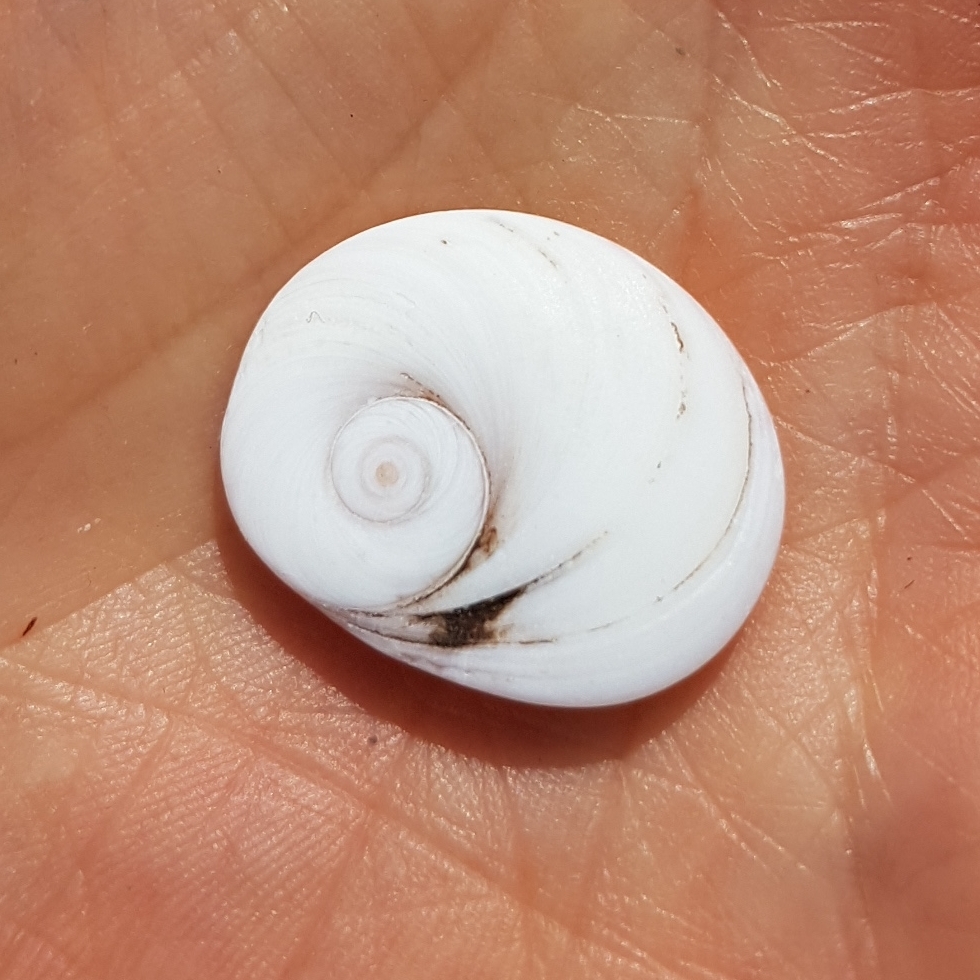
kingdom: Animalia
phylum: Mollusca
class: Gastropoda
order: Trochida
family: Turbinidae
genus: Bolma
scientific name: Bolma rugosa
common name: Rough star shell
